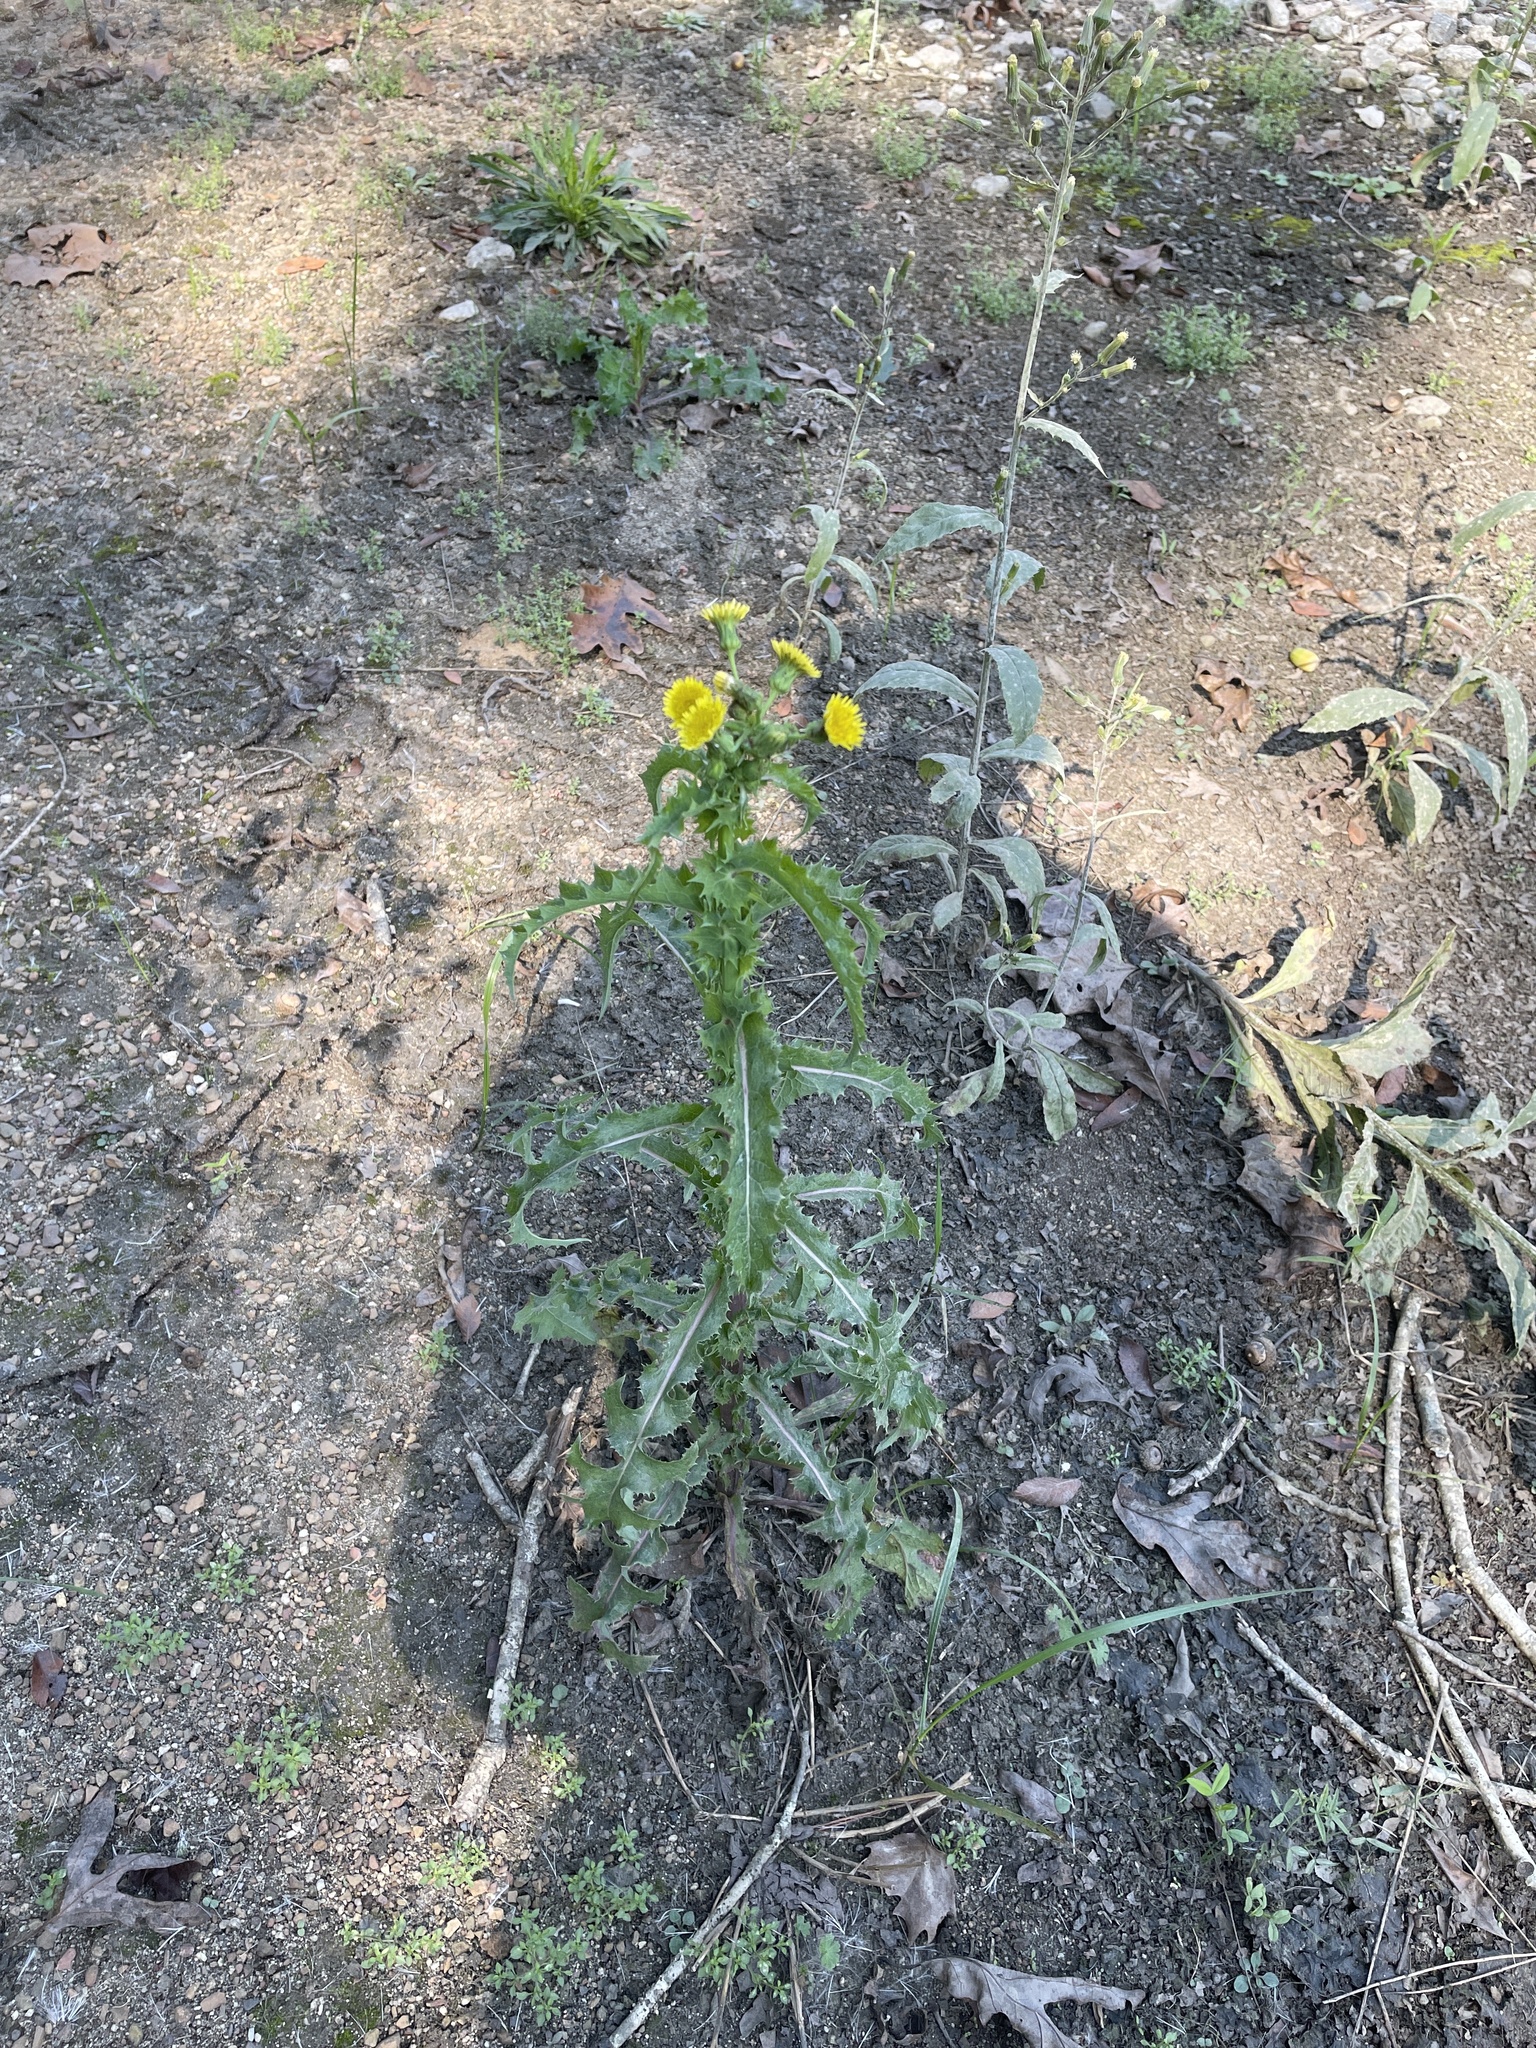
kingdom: Plantae
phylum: Tracheophyta
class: Magnoliopsida
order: Asterales
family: Asteraceae
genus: Sonchus
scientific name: Sonchus asper
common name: Prickly sow-thistle
